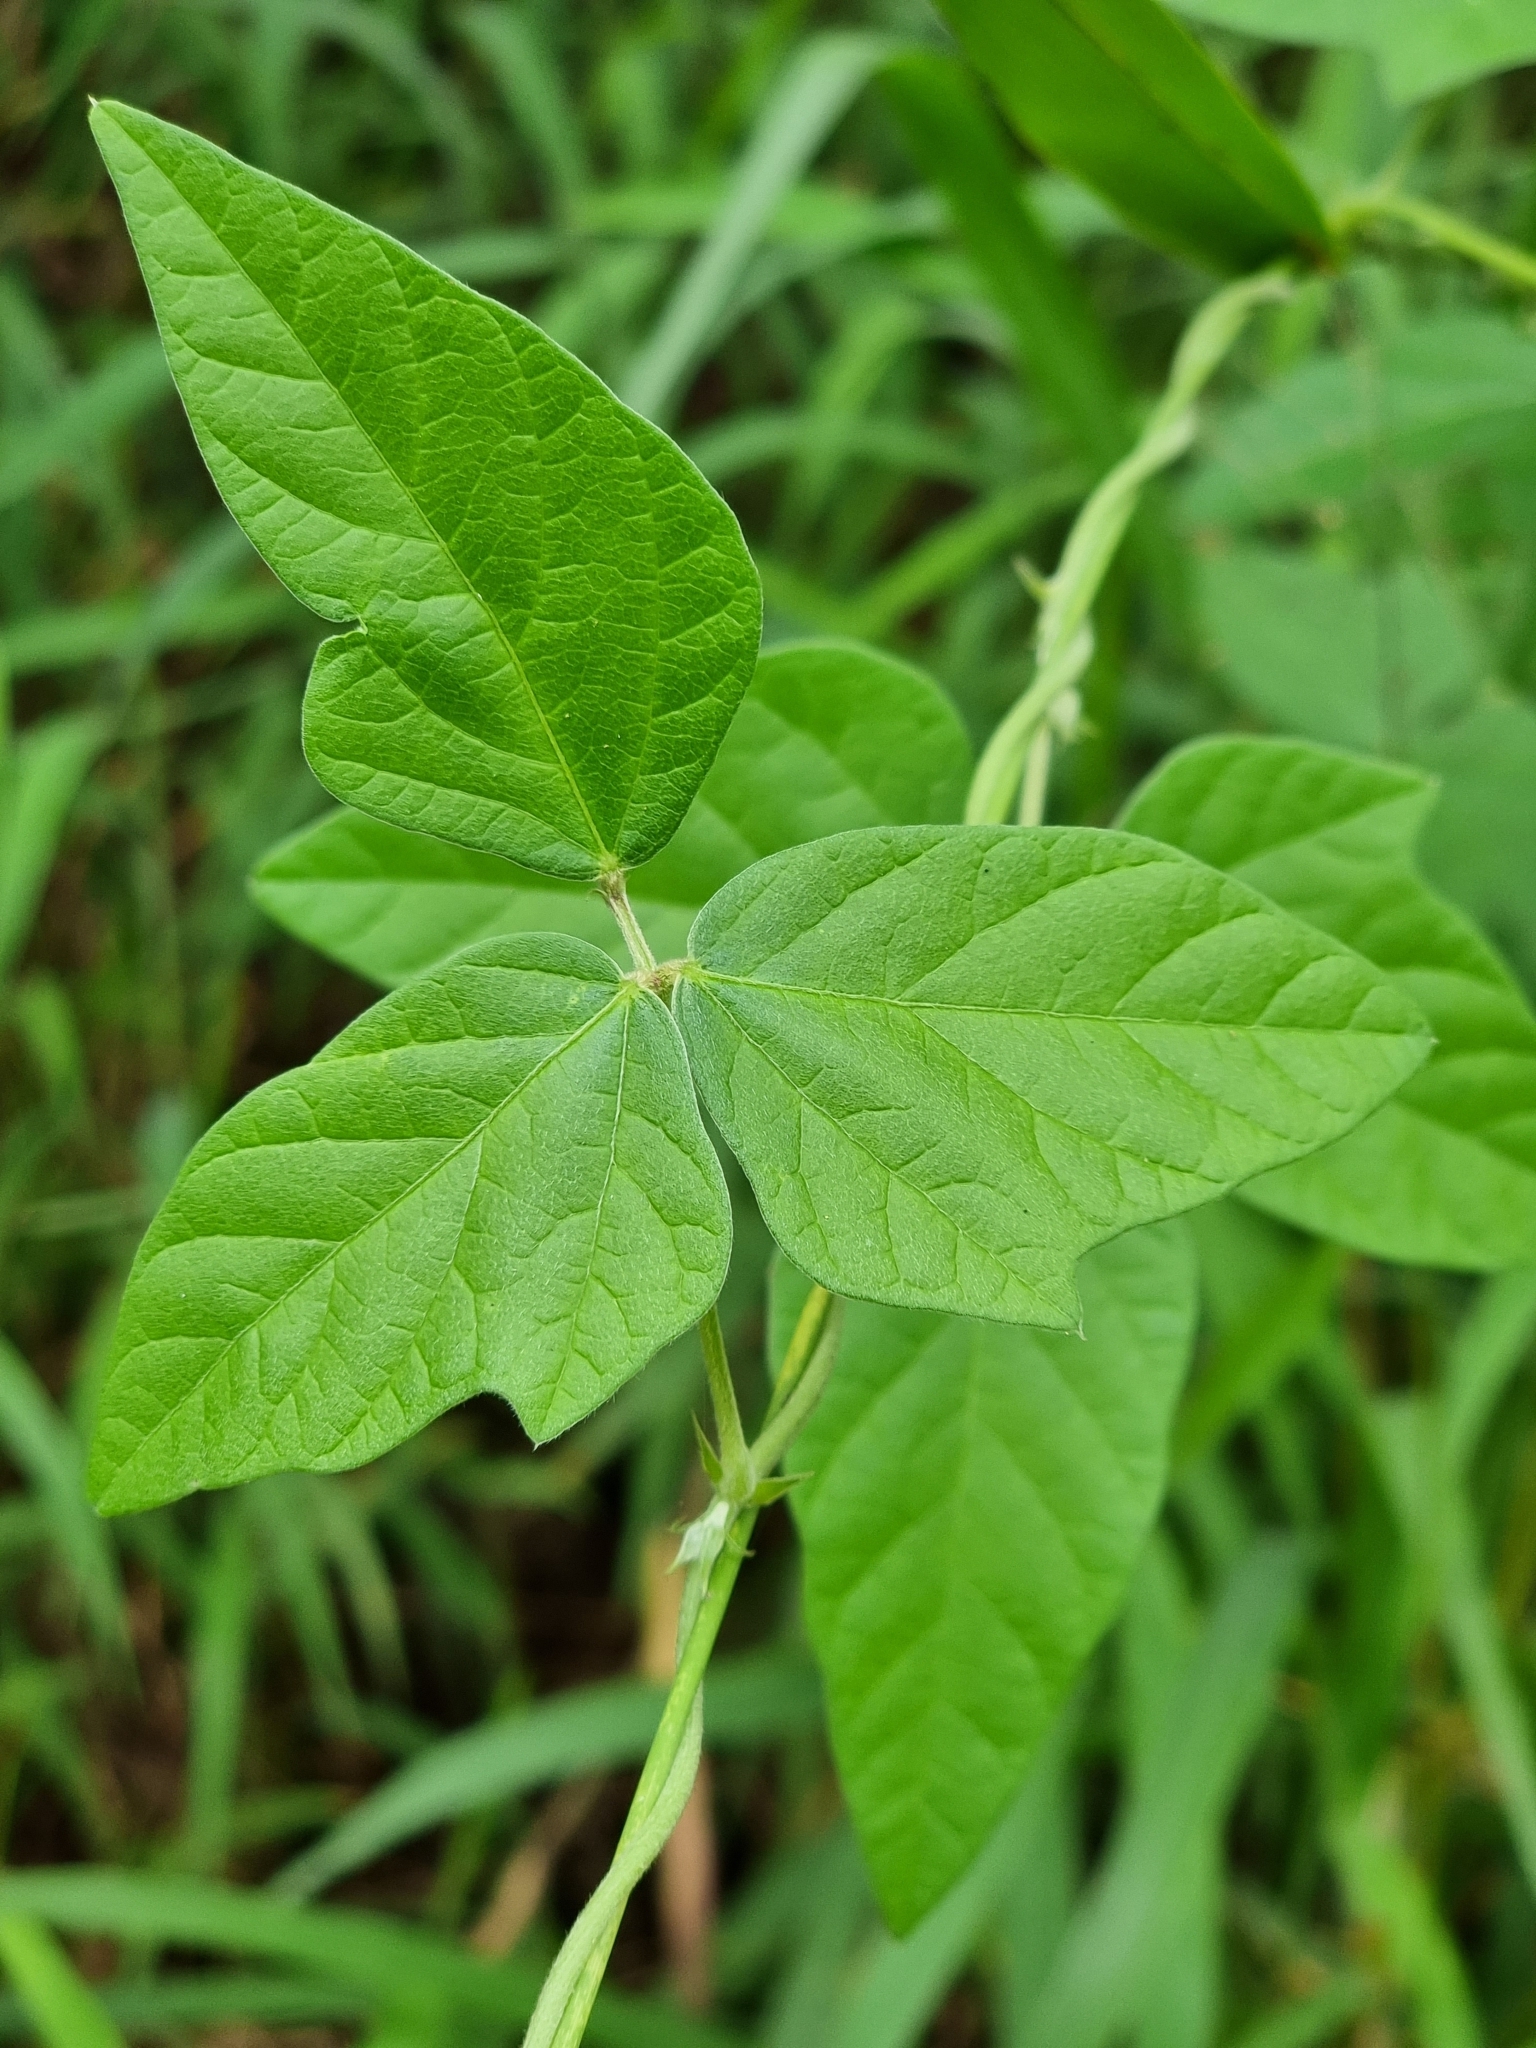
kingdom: Plantae
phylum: Tracheophyta
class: Magnoliopsida
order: Fabales
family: Fabaceae
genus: Macroptilium
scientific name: Macroptilium atropurpureum
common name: Purple bushbean
